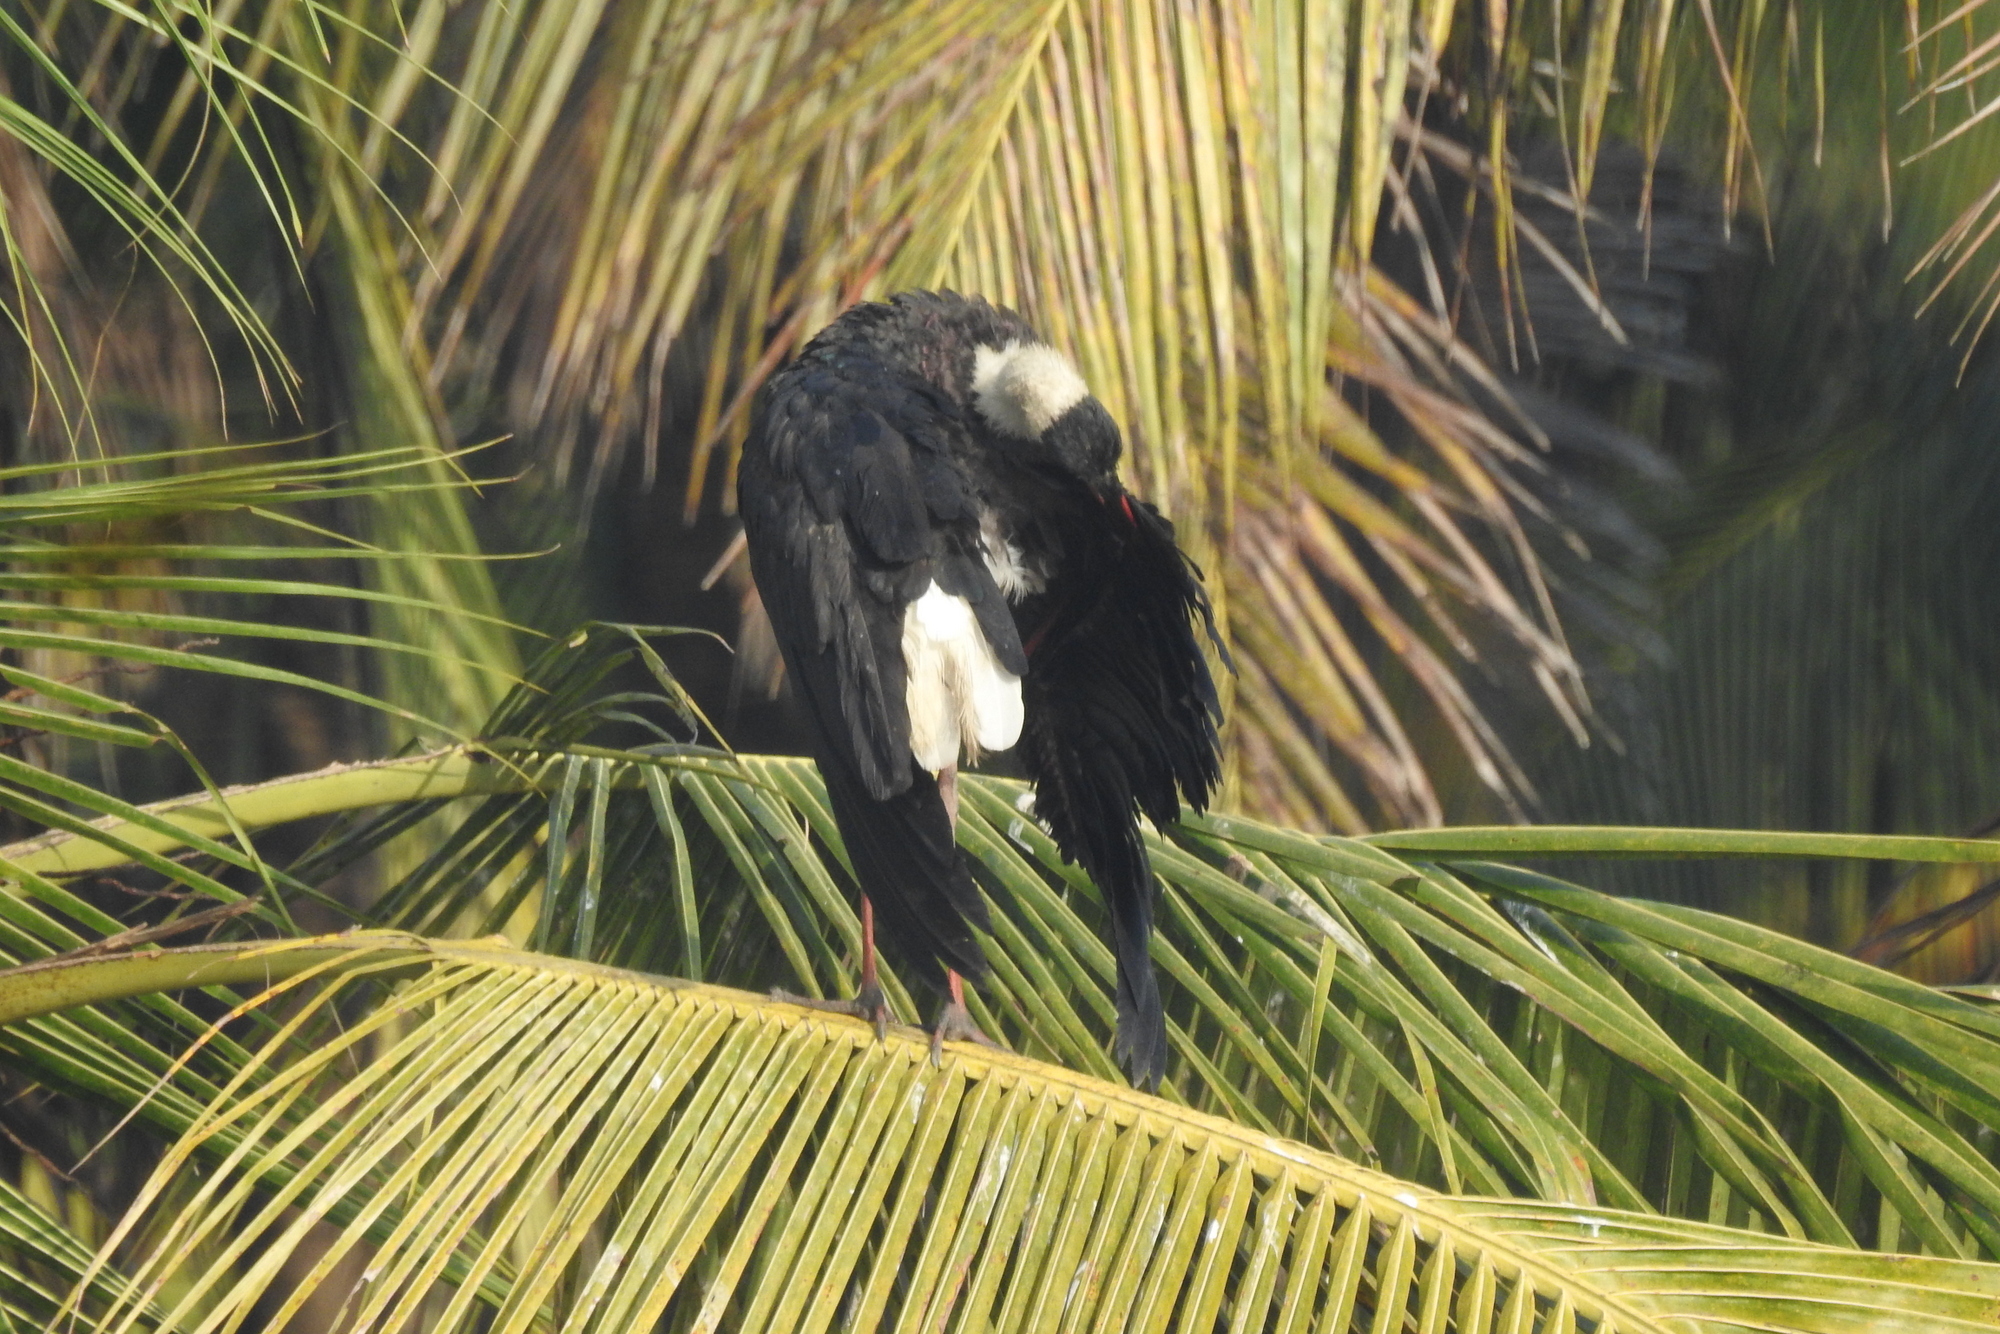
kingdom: Animalia
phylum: Chordata
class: Aves
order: Ciconiiformes
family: Ciconiidae
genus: Ciconia
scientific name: Ciconia episcopus
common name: Woolly-necked stork
